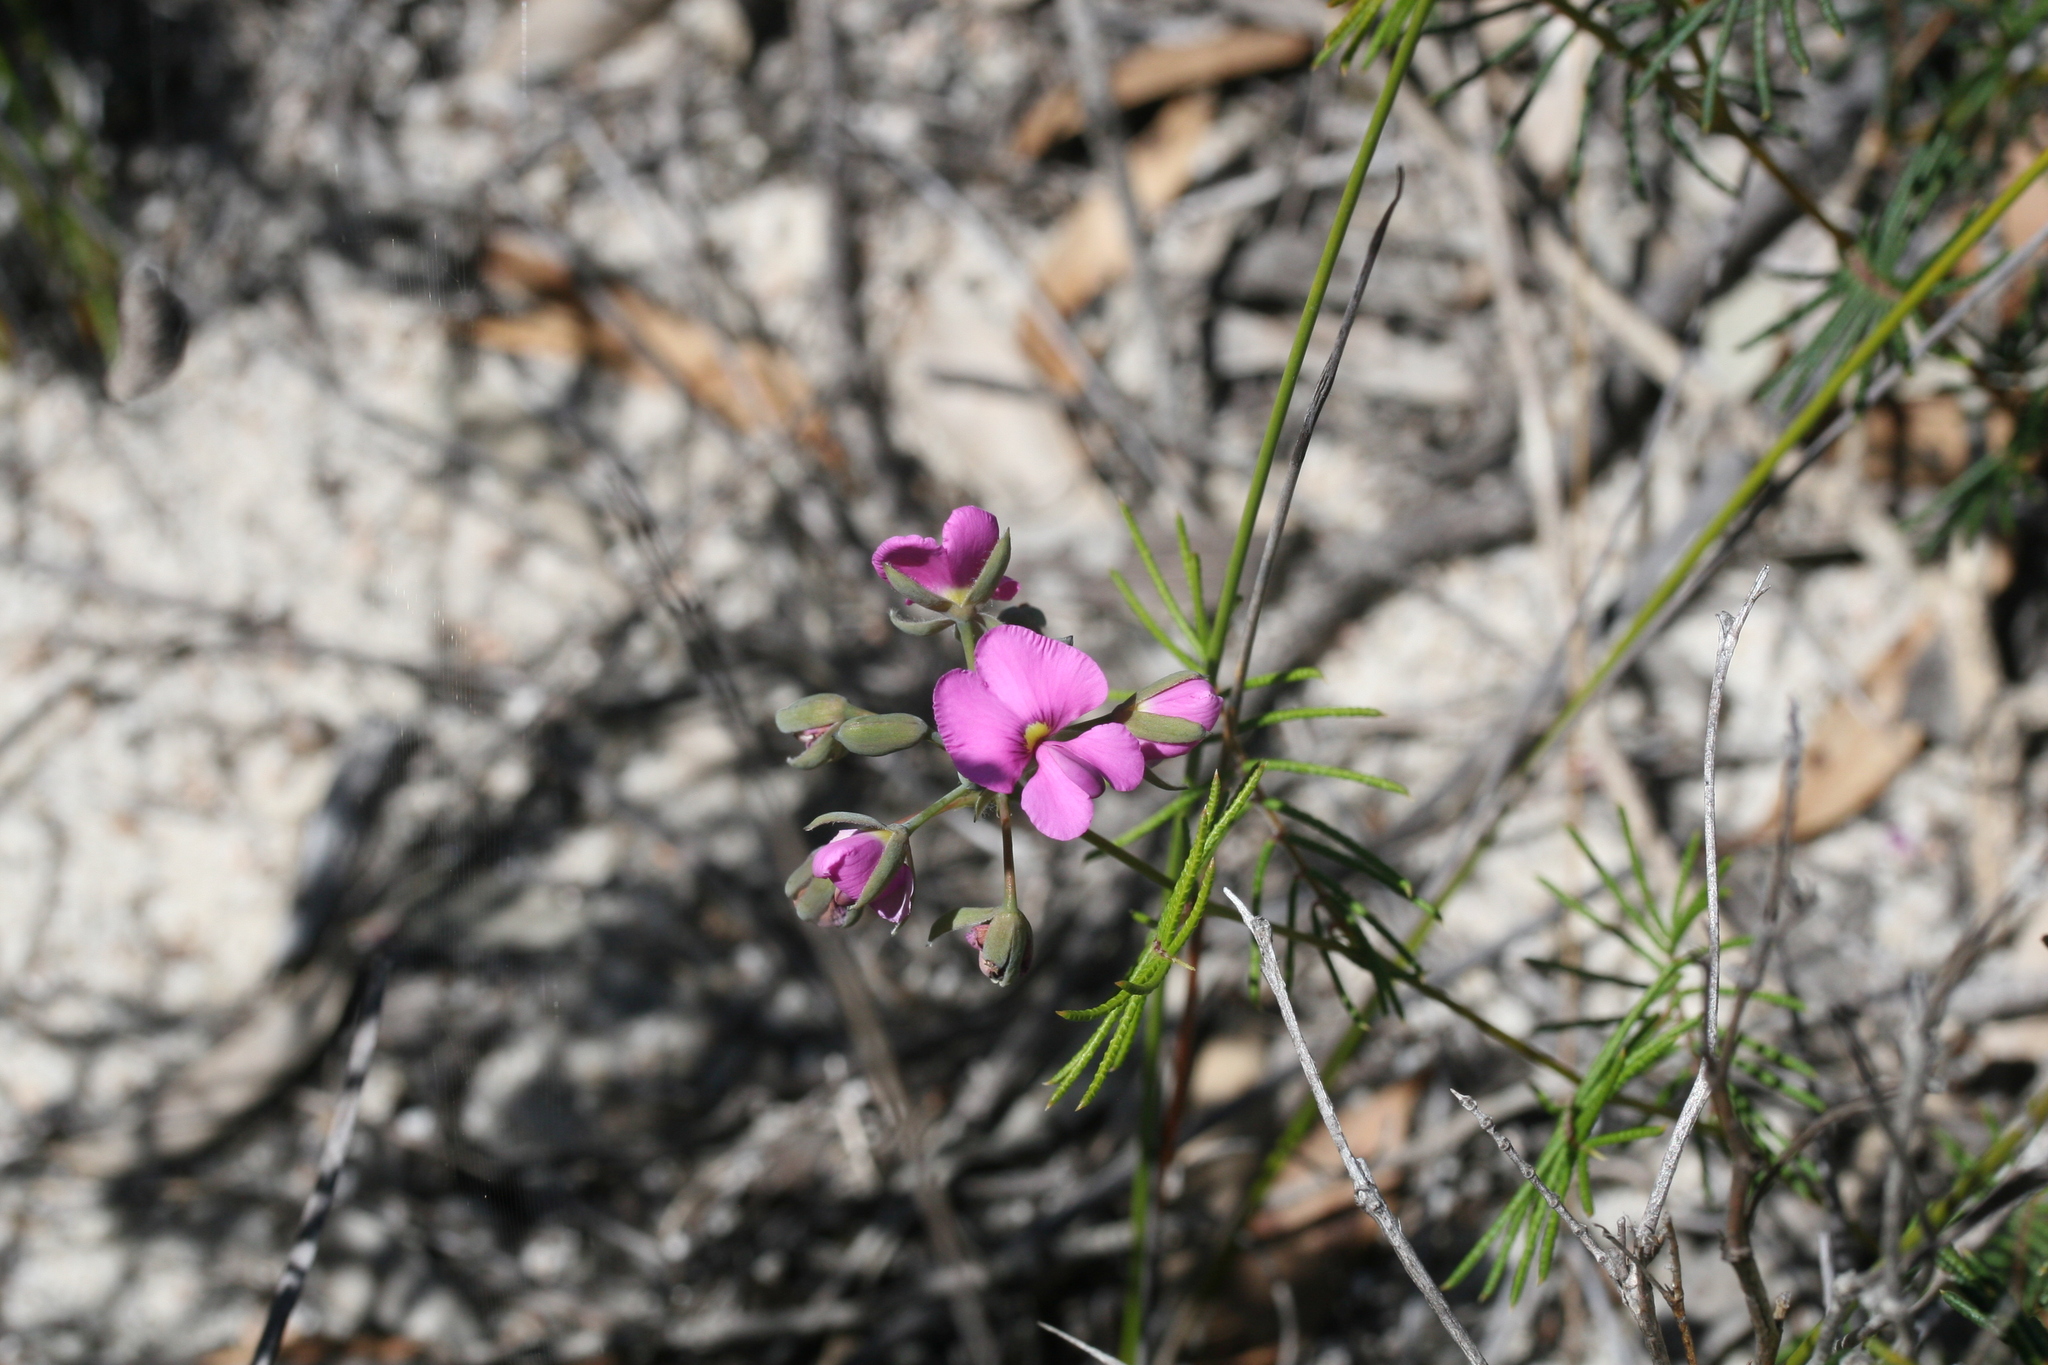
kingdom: Plantae
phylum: Tracheophyta
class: Magnoliopsida
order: Fabales
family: Fabaceae
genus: Gompholobium
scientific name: Gompholobium venustum
